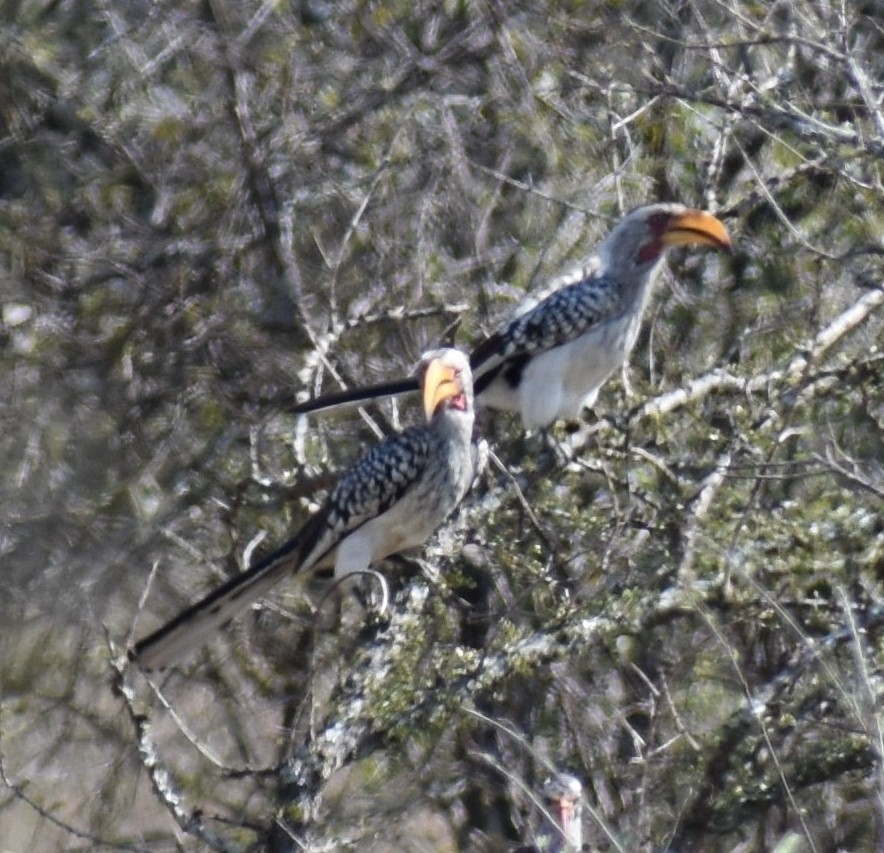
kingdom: Animalia
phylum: Chordata
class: Aves
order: Bucerotiformes
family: Bucerotidae
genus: Tockus
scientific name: Tockus leucomelas
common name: Southern yellow-billed hornbill
